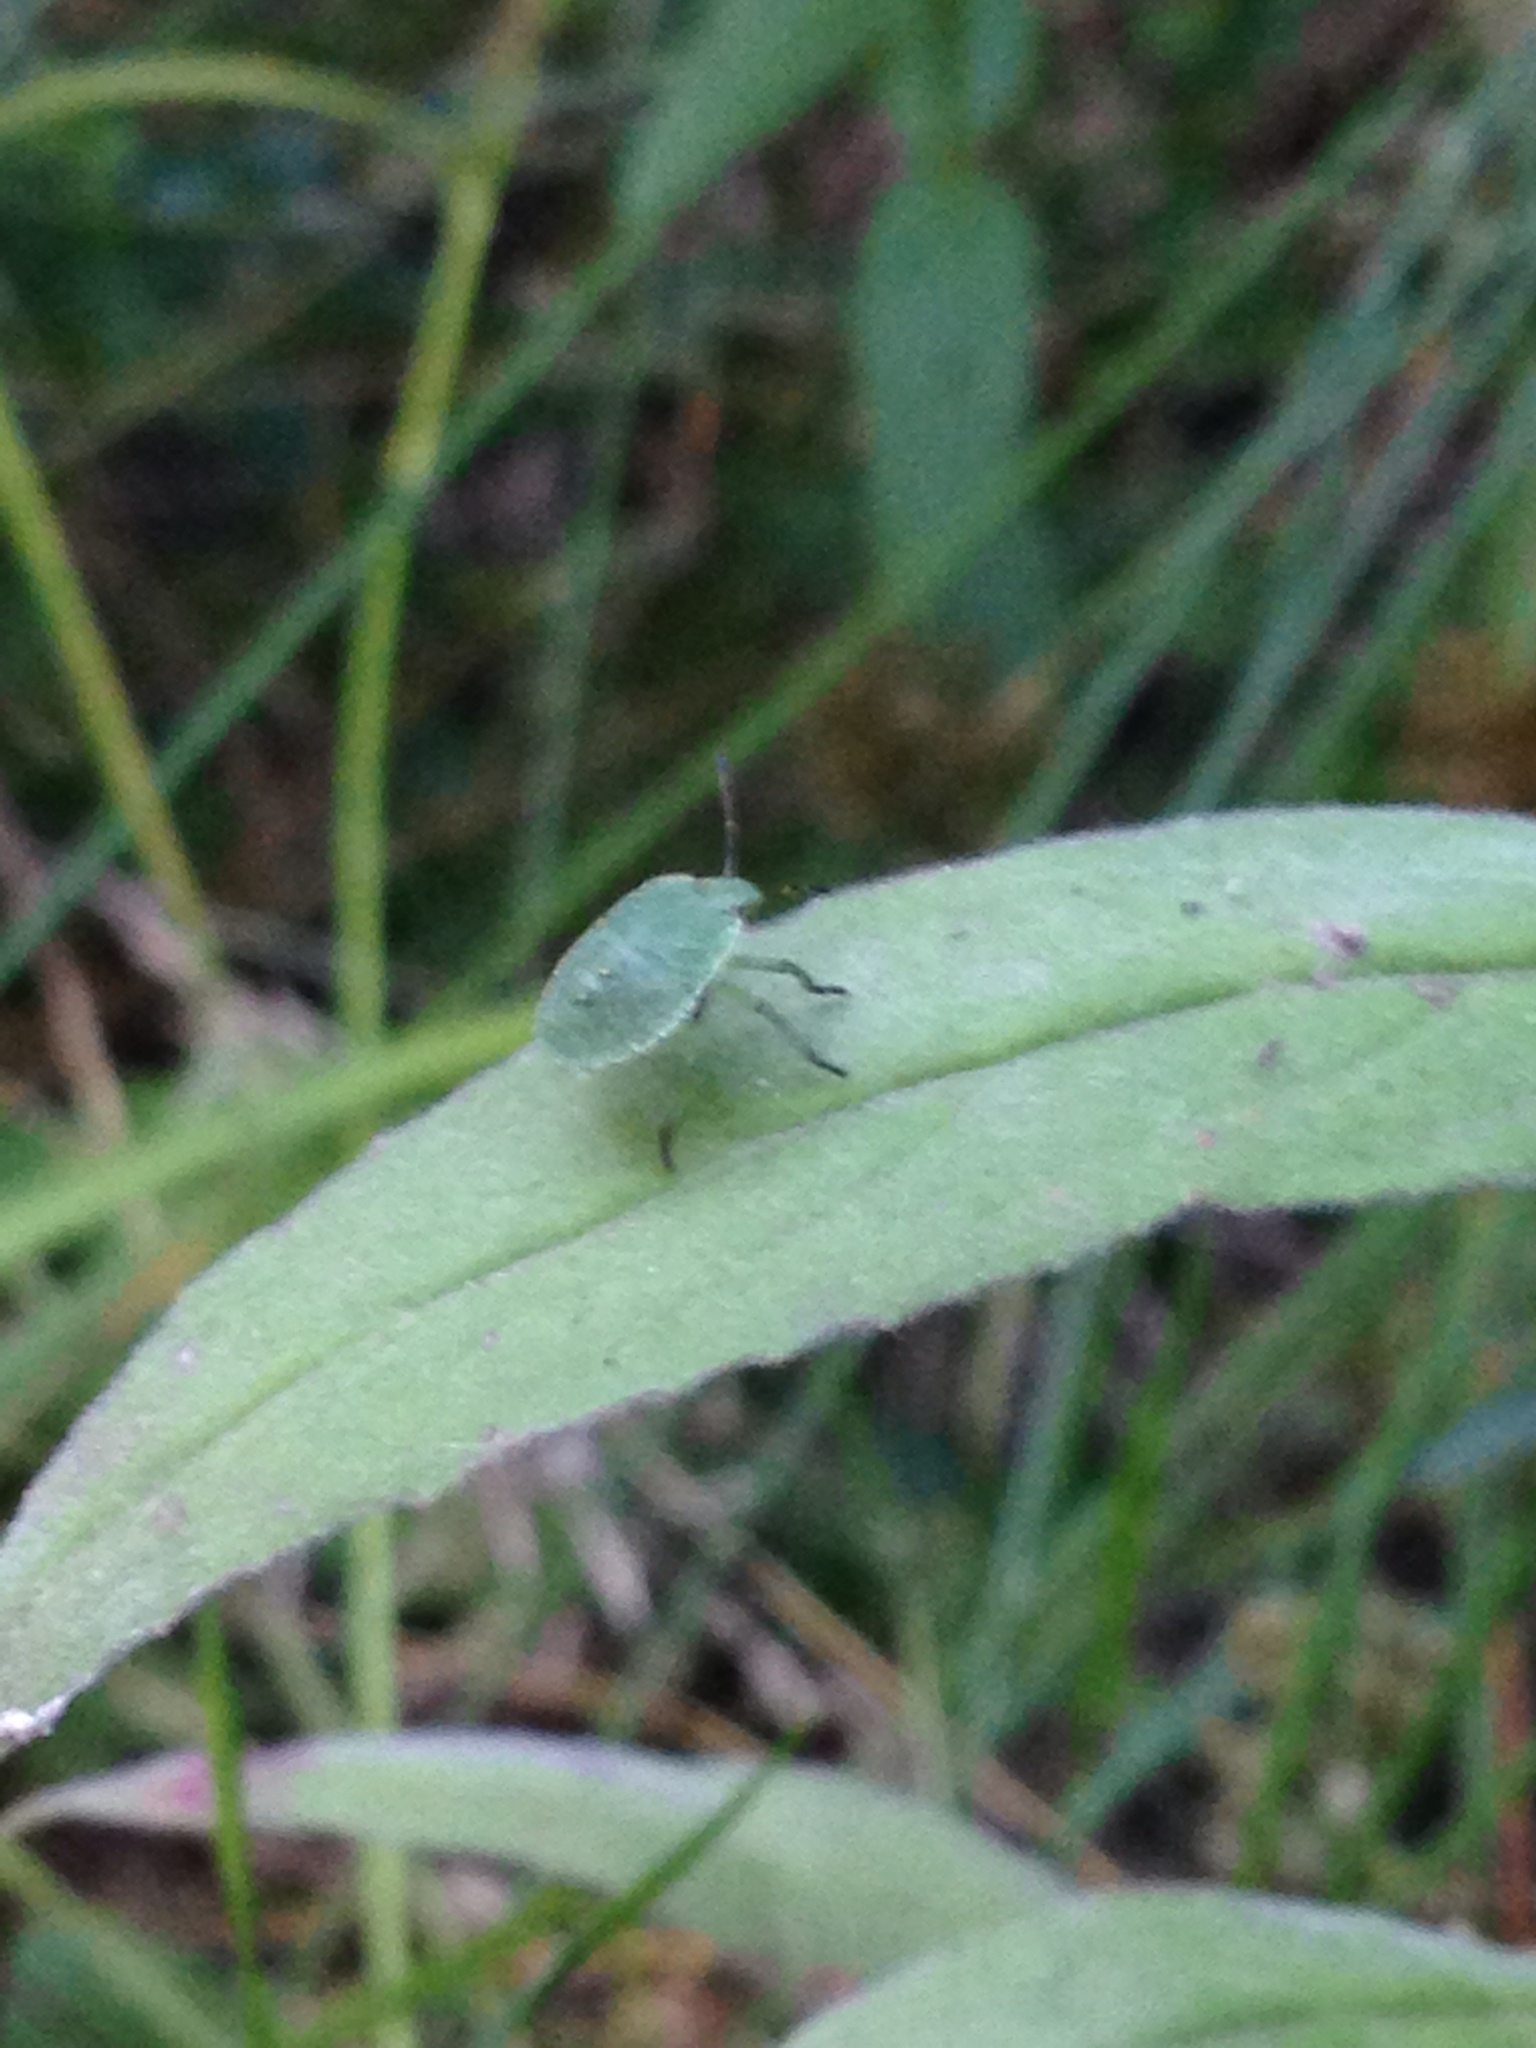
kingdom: Animalia
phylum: Arthropoda
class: Insecta
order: Hemiptera
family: Pentatomidae
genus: Palomena
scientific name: Palomena prasina
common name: Green shieldbug
